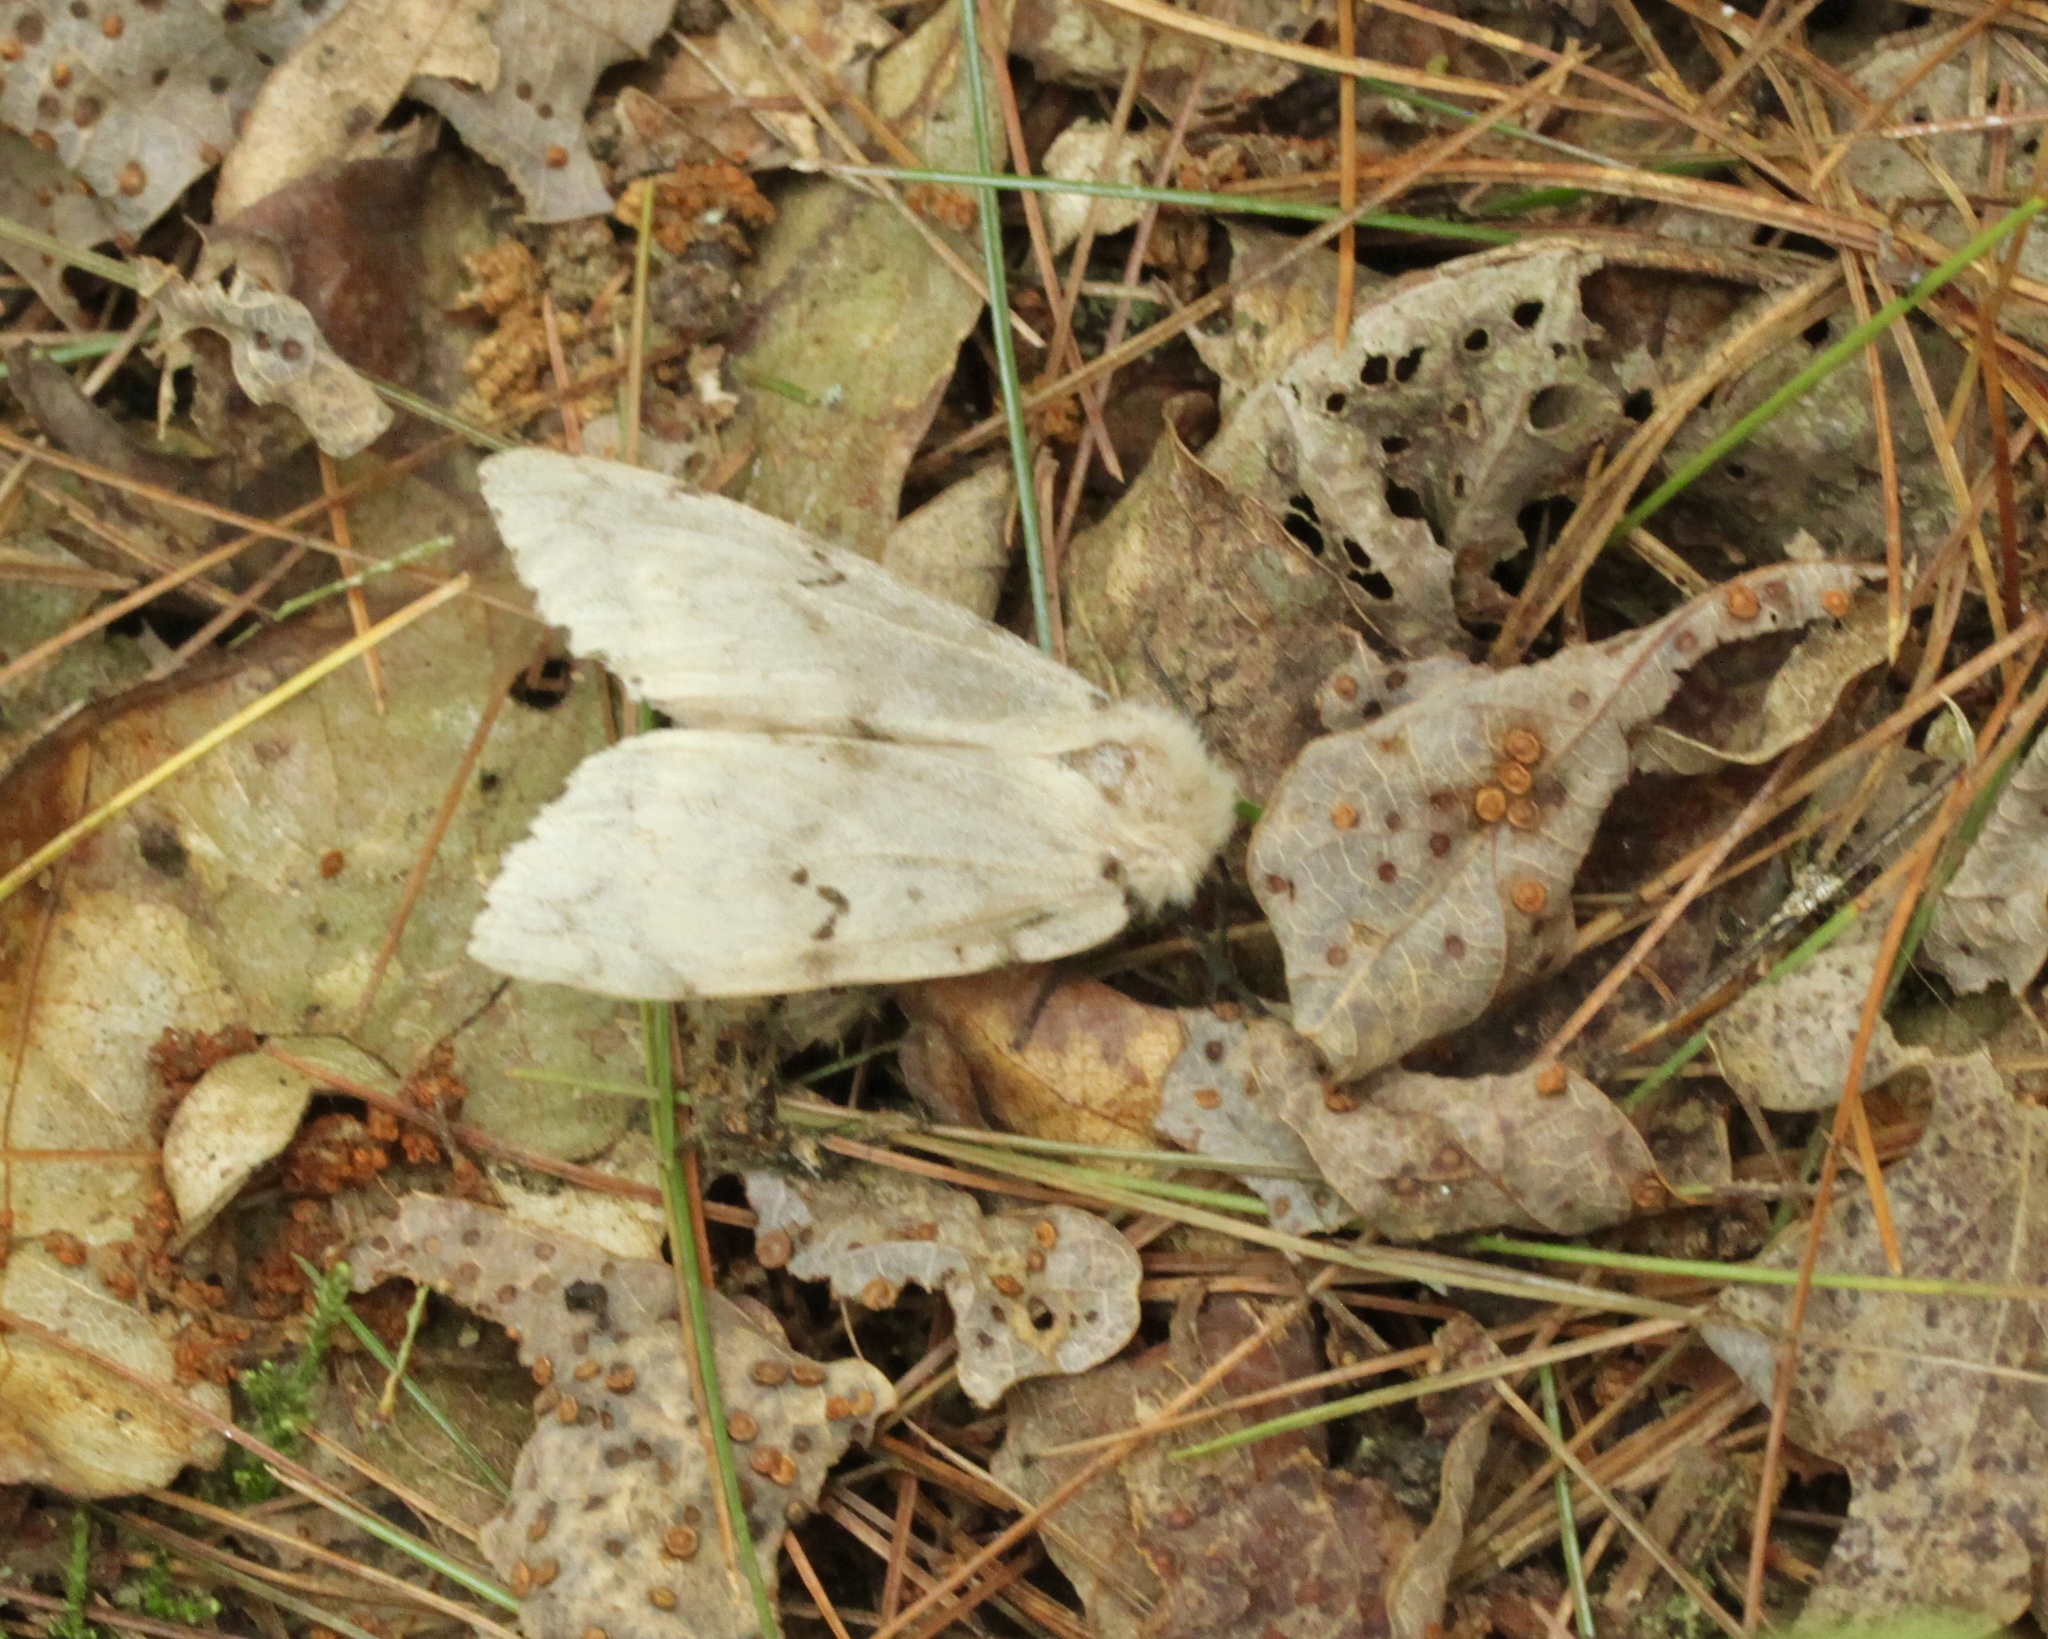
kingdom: Animalia
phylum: Arthropoda
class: Insecta
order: Lepidoptera
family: Erebidae
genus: Lymantria
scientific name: Lymantria dispar
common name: Gypsy moth
